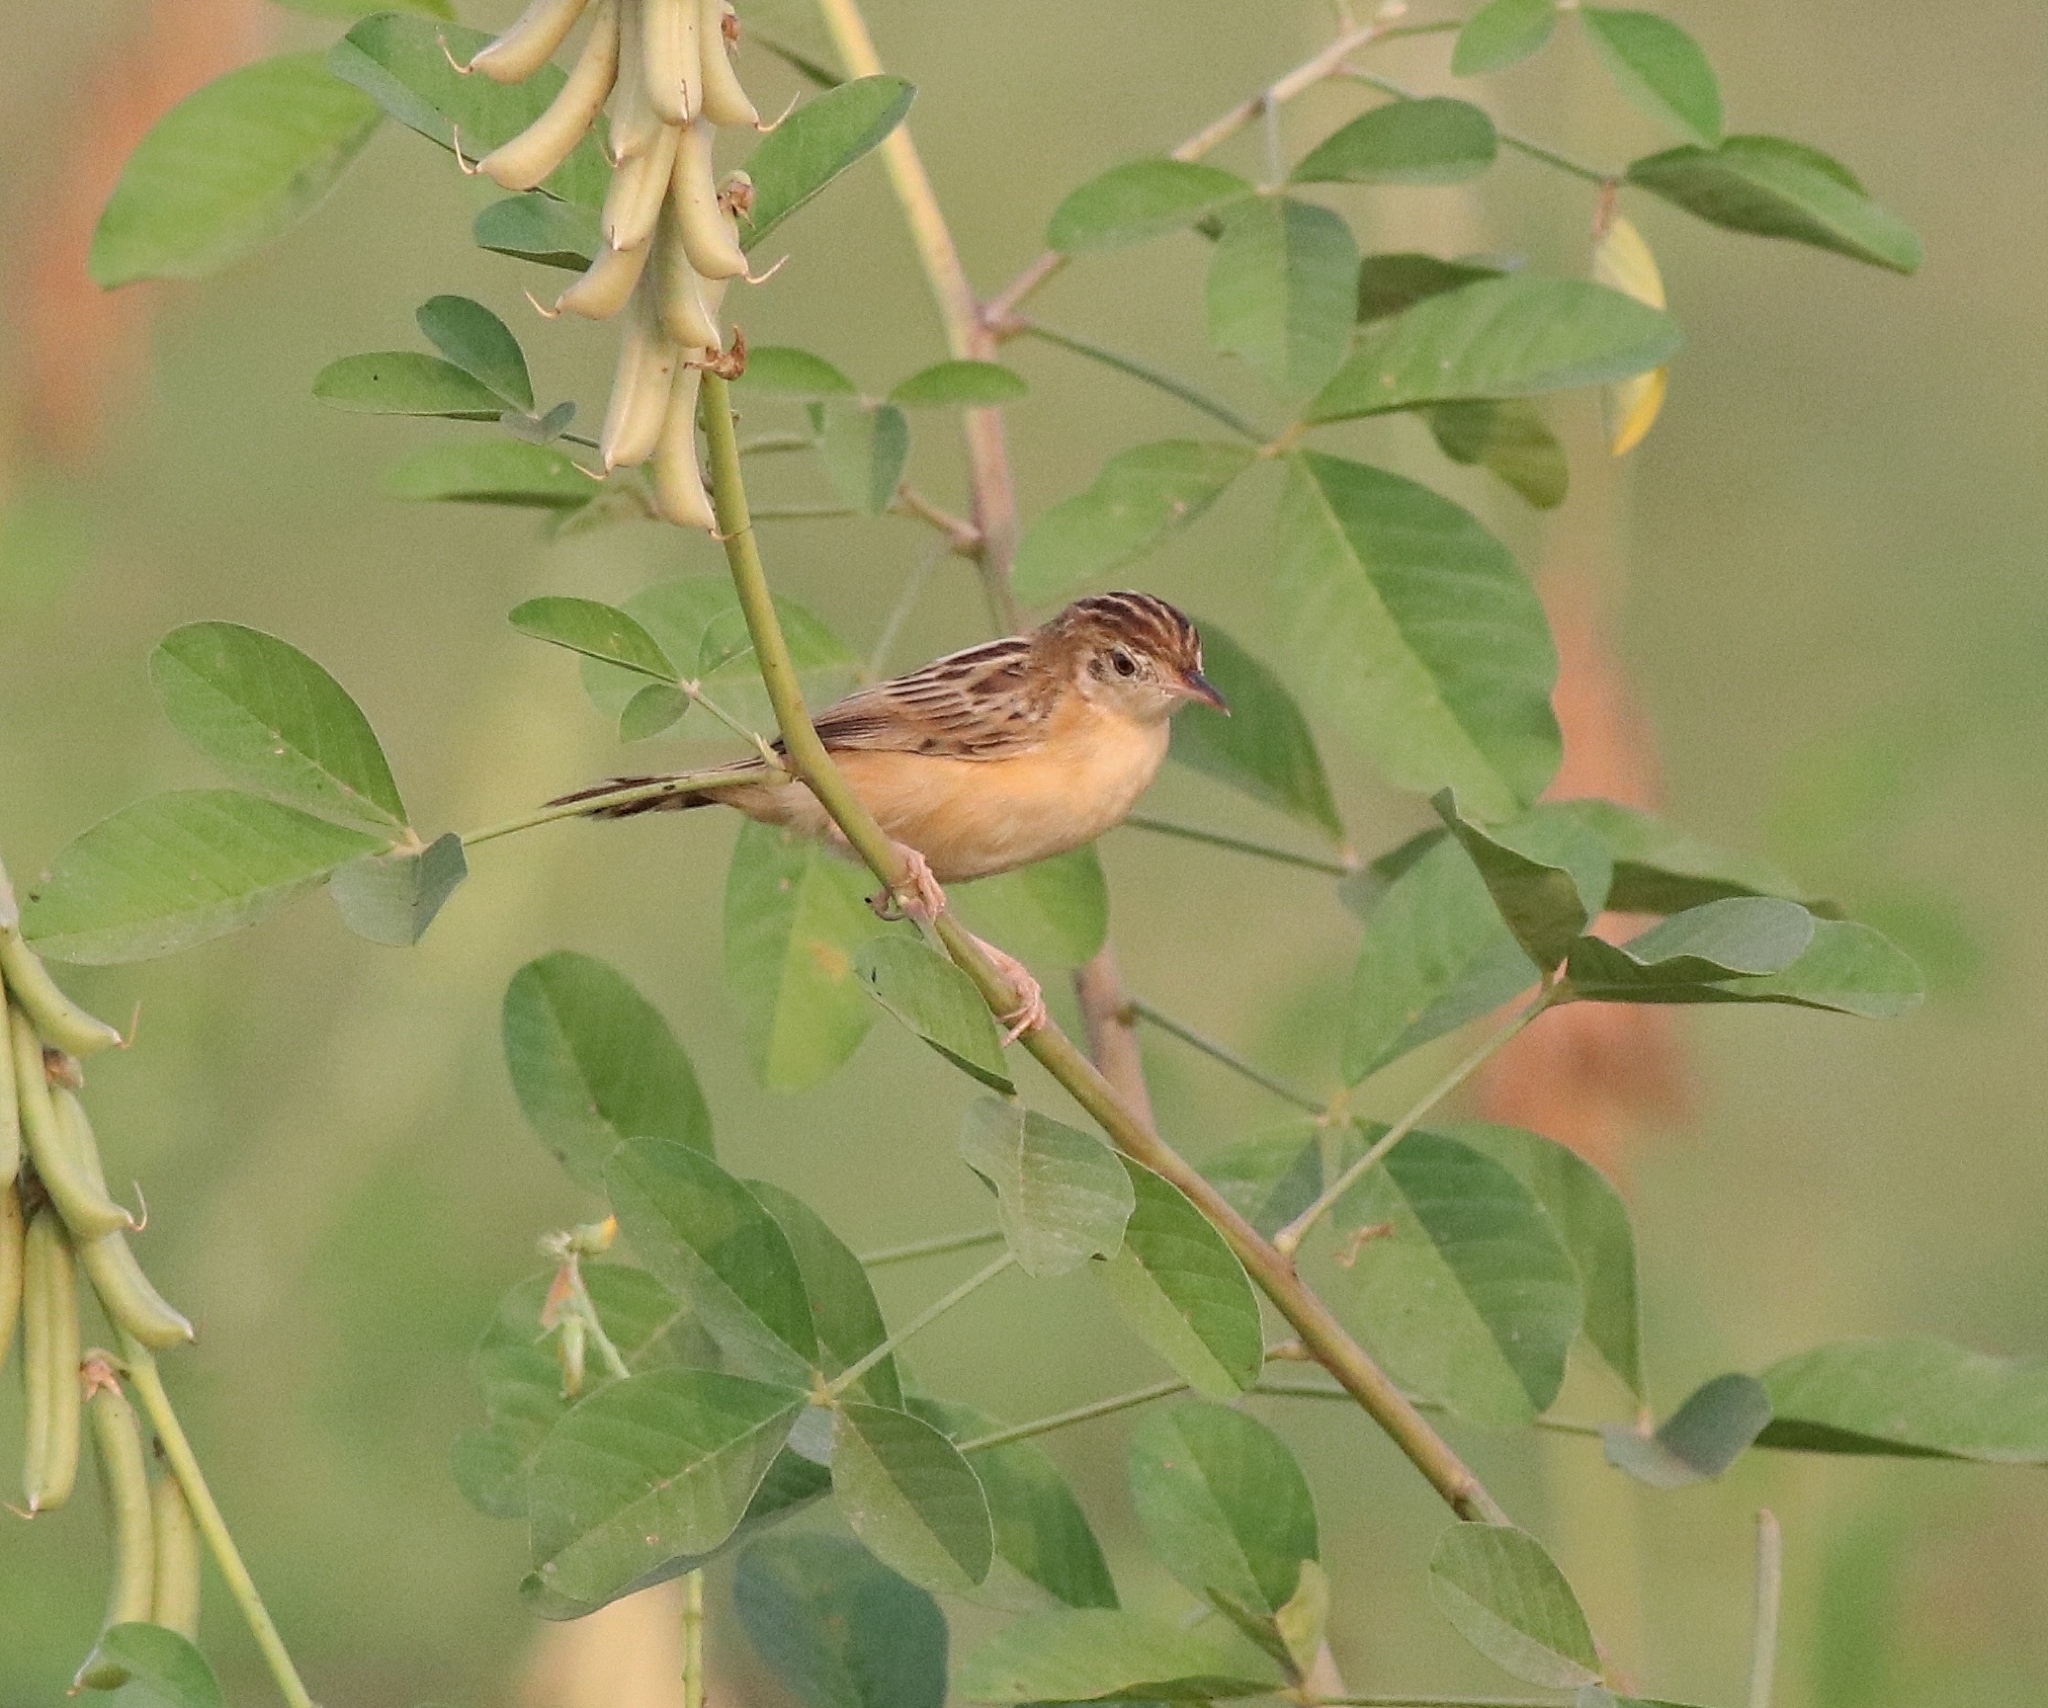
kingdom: Animalia
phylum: Chordata
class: Aves
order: Passeriformes
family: Cisticolidae
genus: Cisticola
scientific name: Cisticola juncidis
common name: Zitting cisticola
